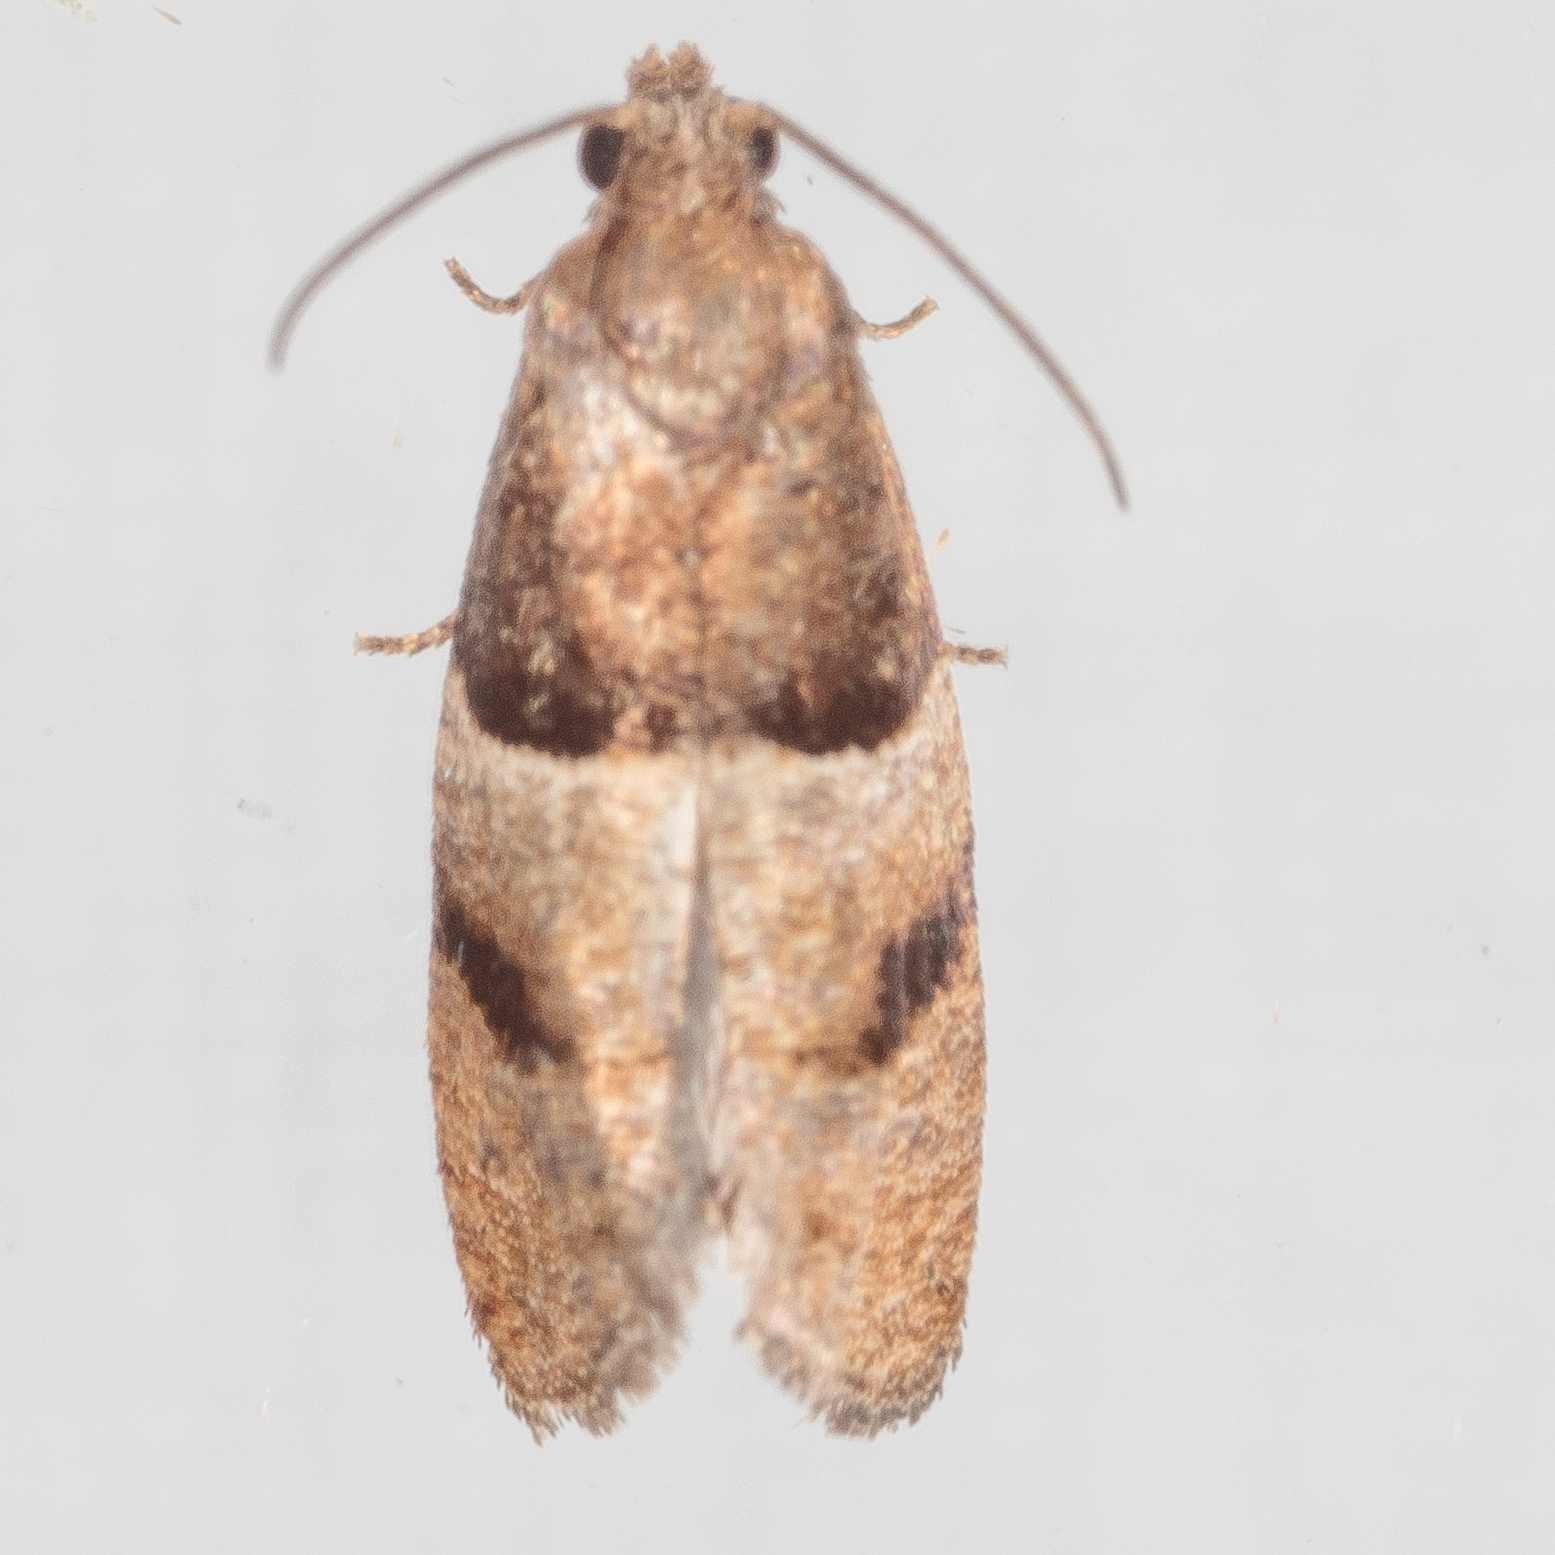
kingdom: Animalia
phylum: Arthropoda
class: Insecta
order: Lepidoptera
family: Tortricidae
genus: Larisa
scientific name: Larisa subsolana
